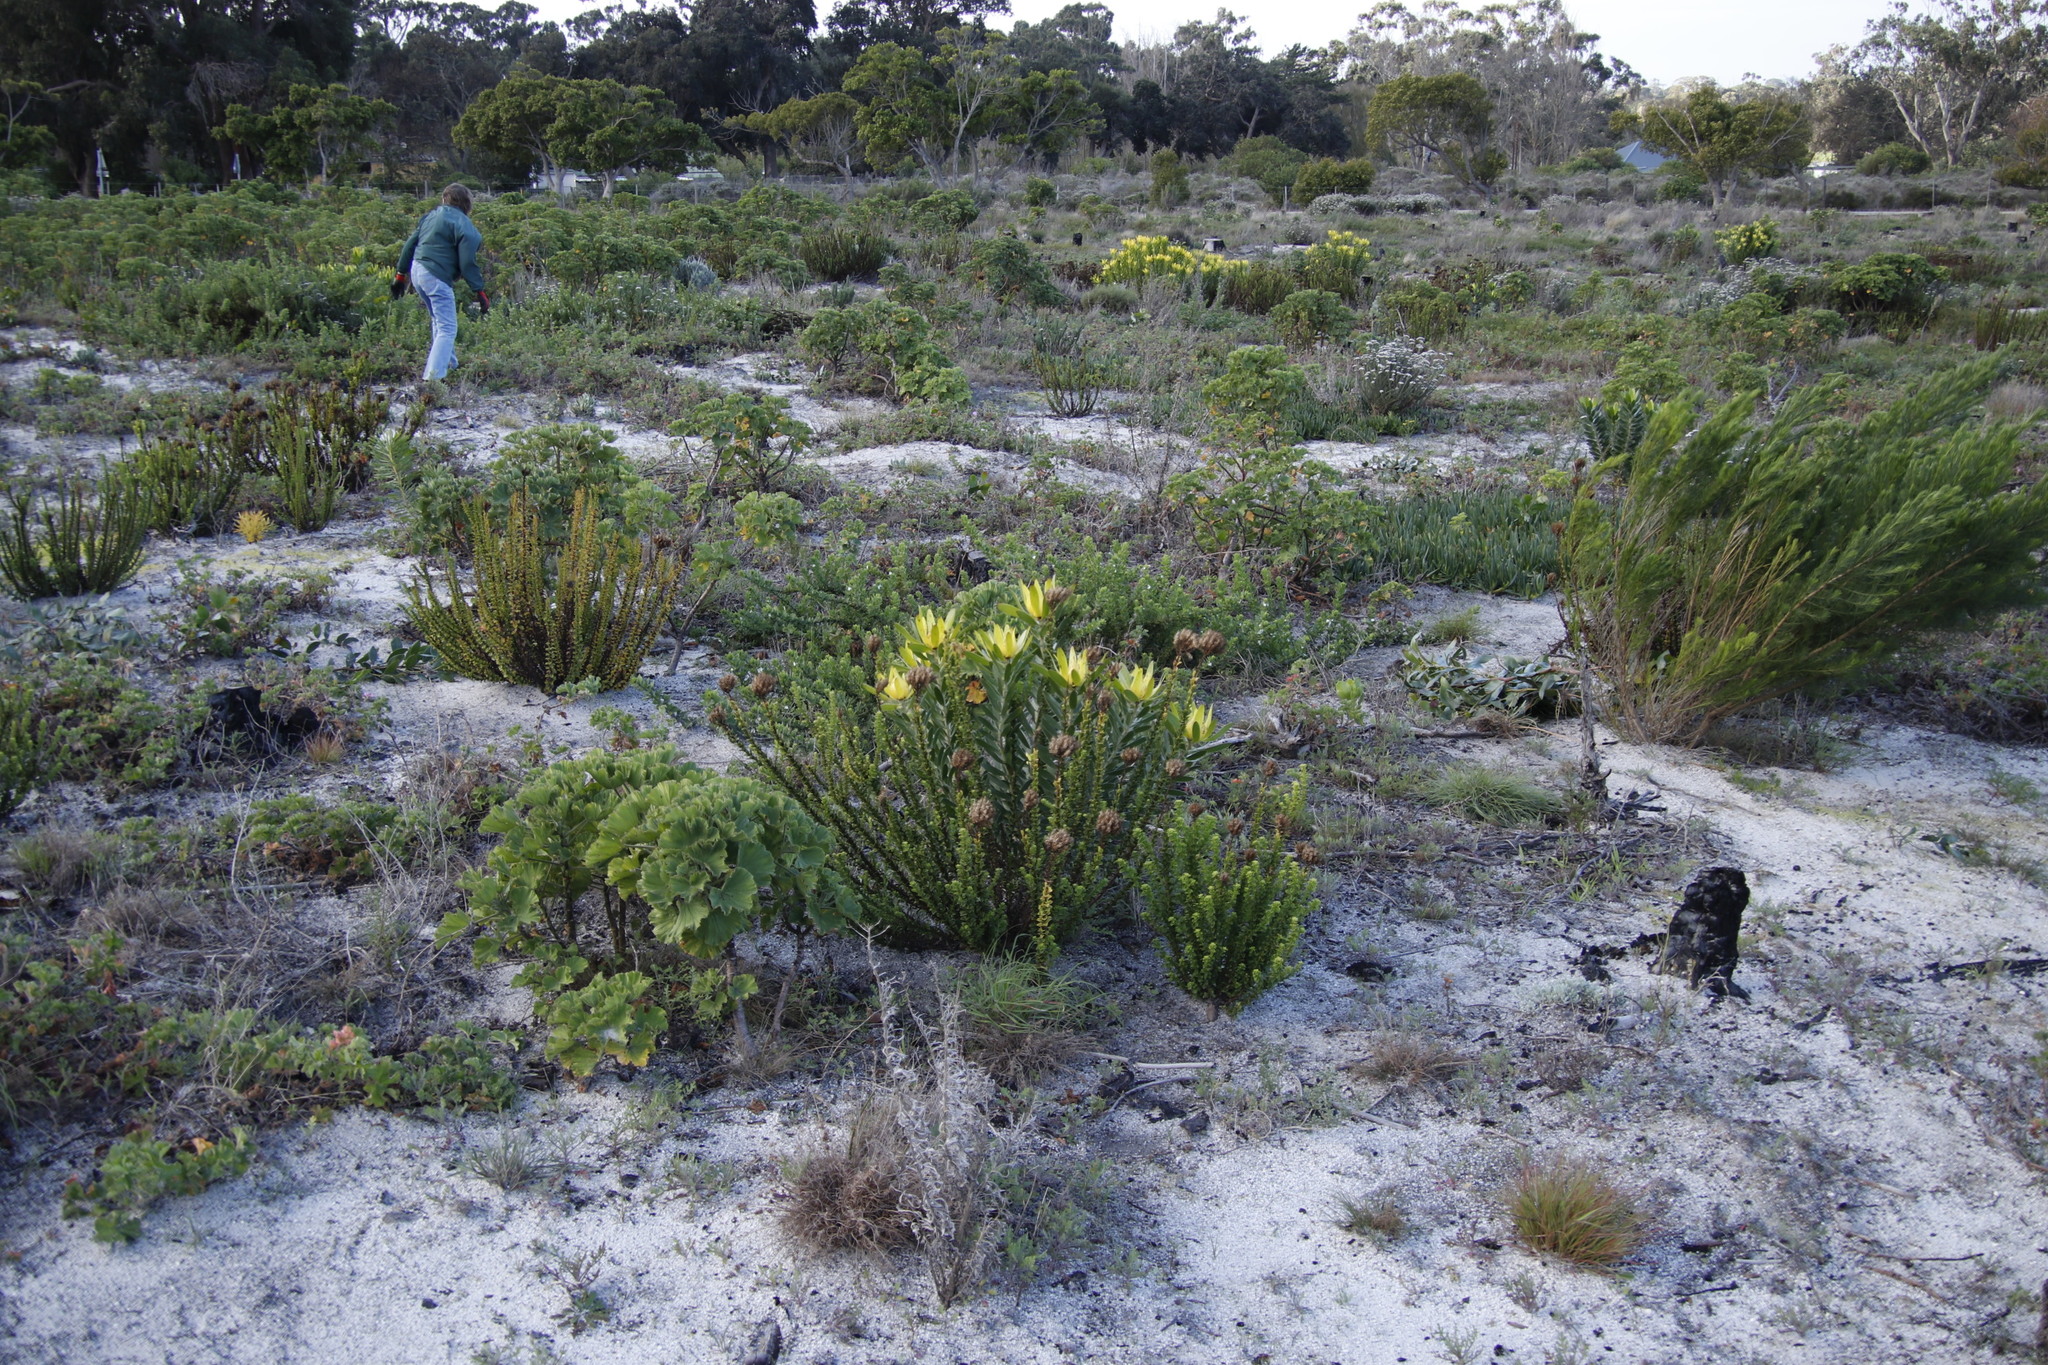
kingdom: Plantae
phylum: Tracheophyta
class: Magnoliopsida
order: Proteales
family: Proteaceae
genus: Leucadendron
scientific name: Leucadendron laureolum
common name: Golden sunshinebush
